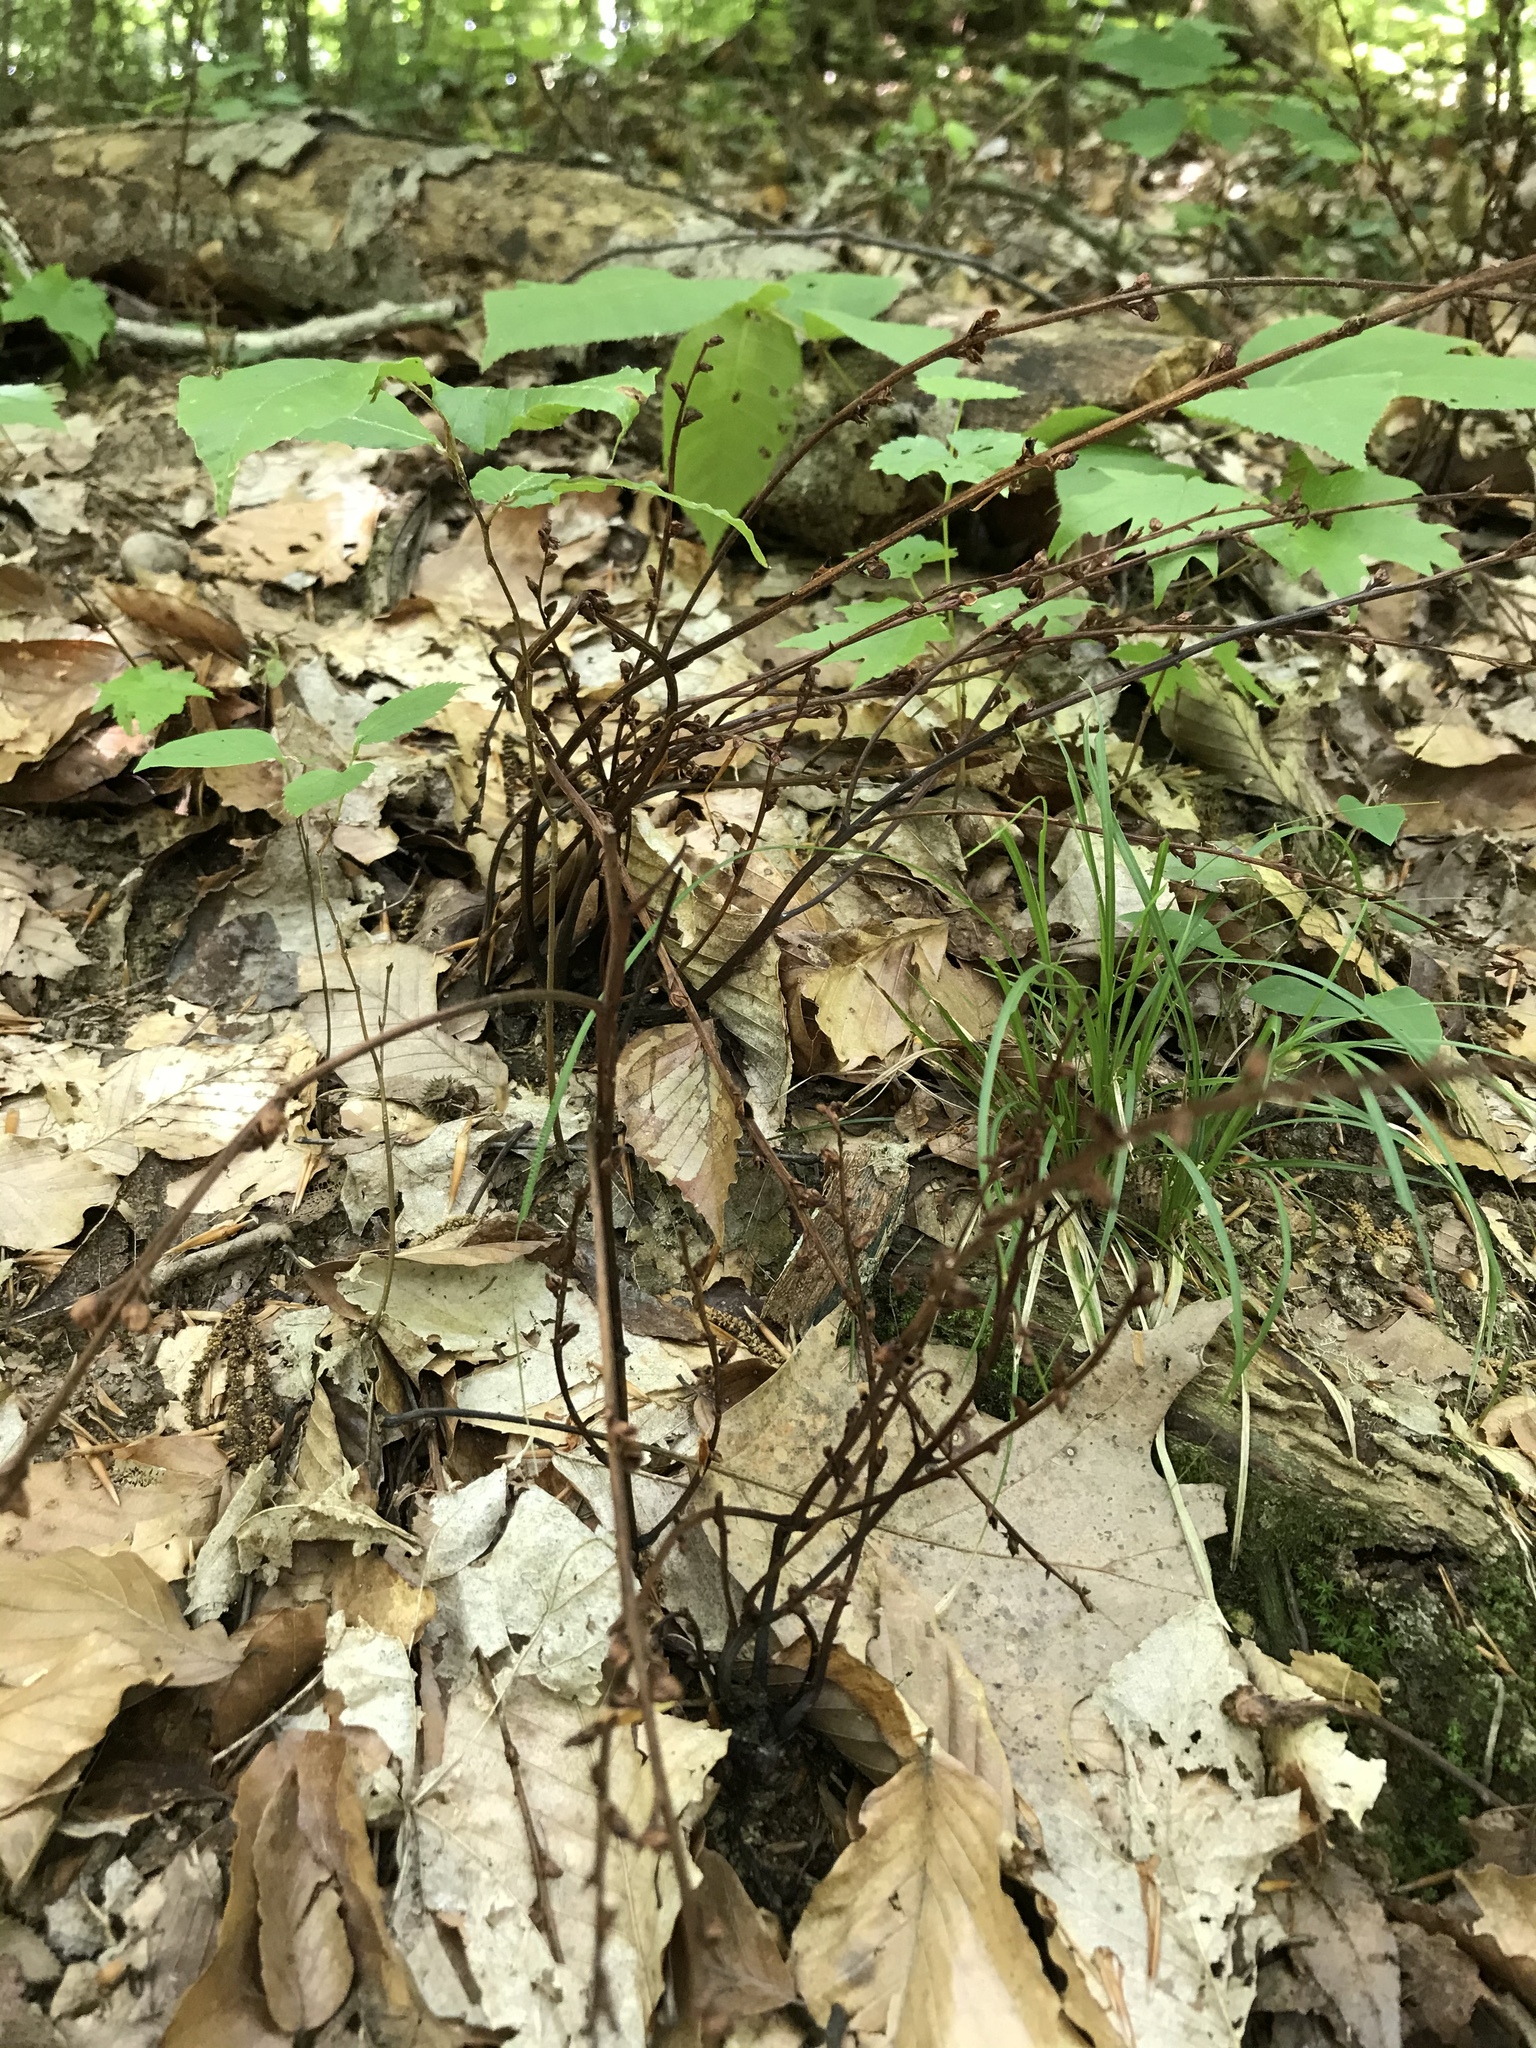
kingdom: Plantae
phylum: Tracheophyta
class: Magnoliopsida
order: Lamiales
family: Orobanchaceae
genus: Epifagus
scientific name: Epifagus virginiana
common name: Beechdrops
